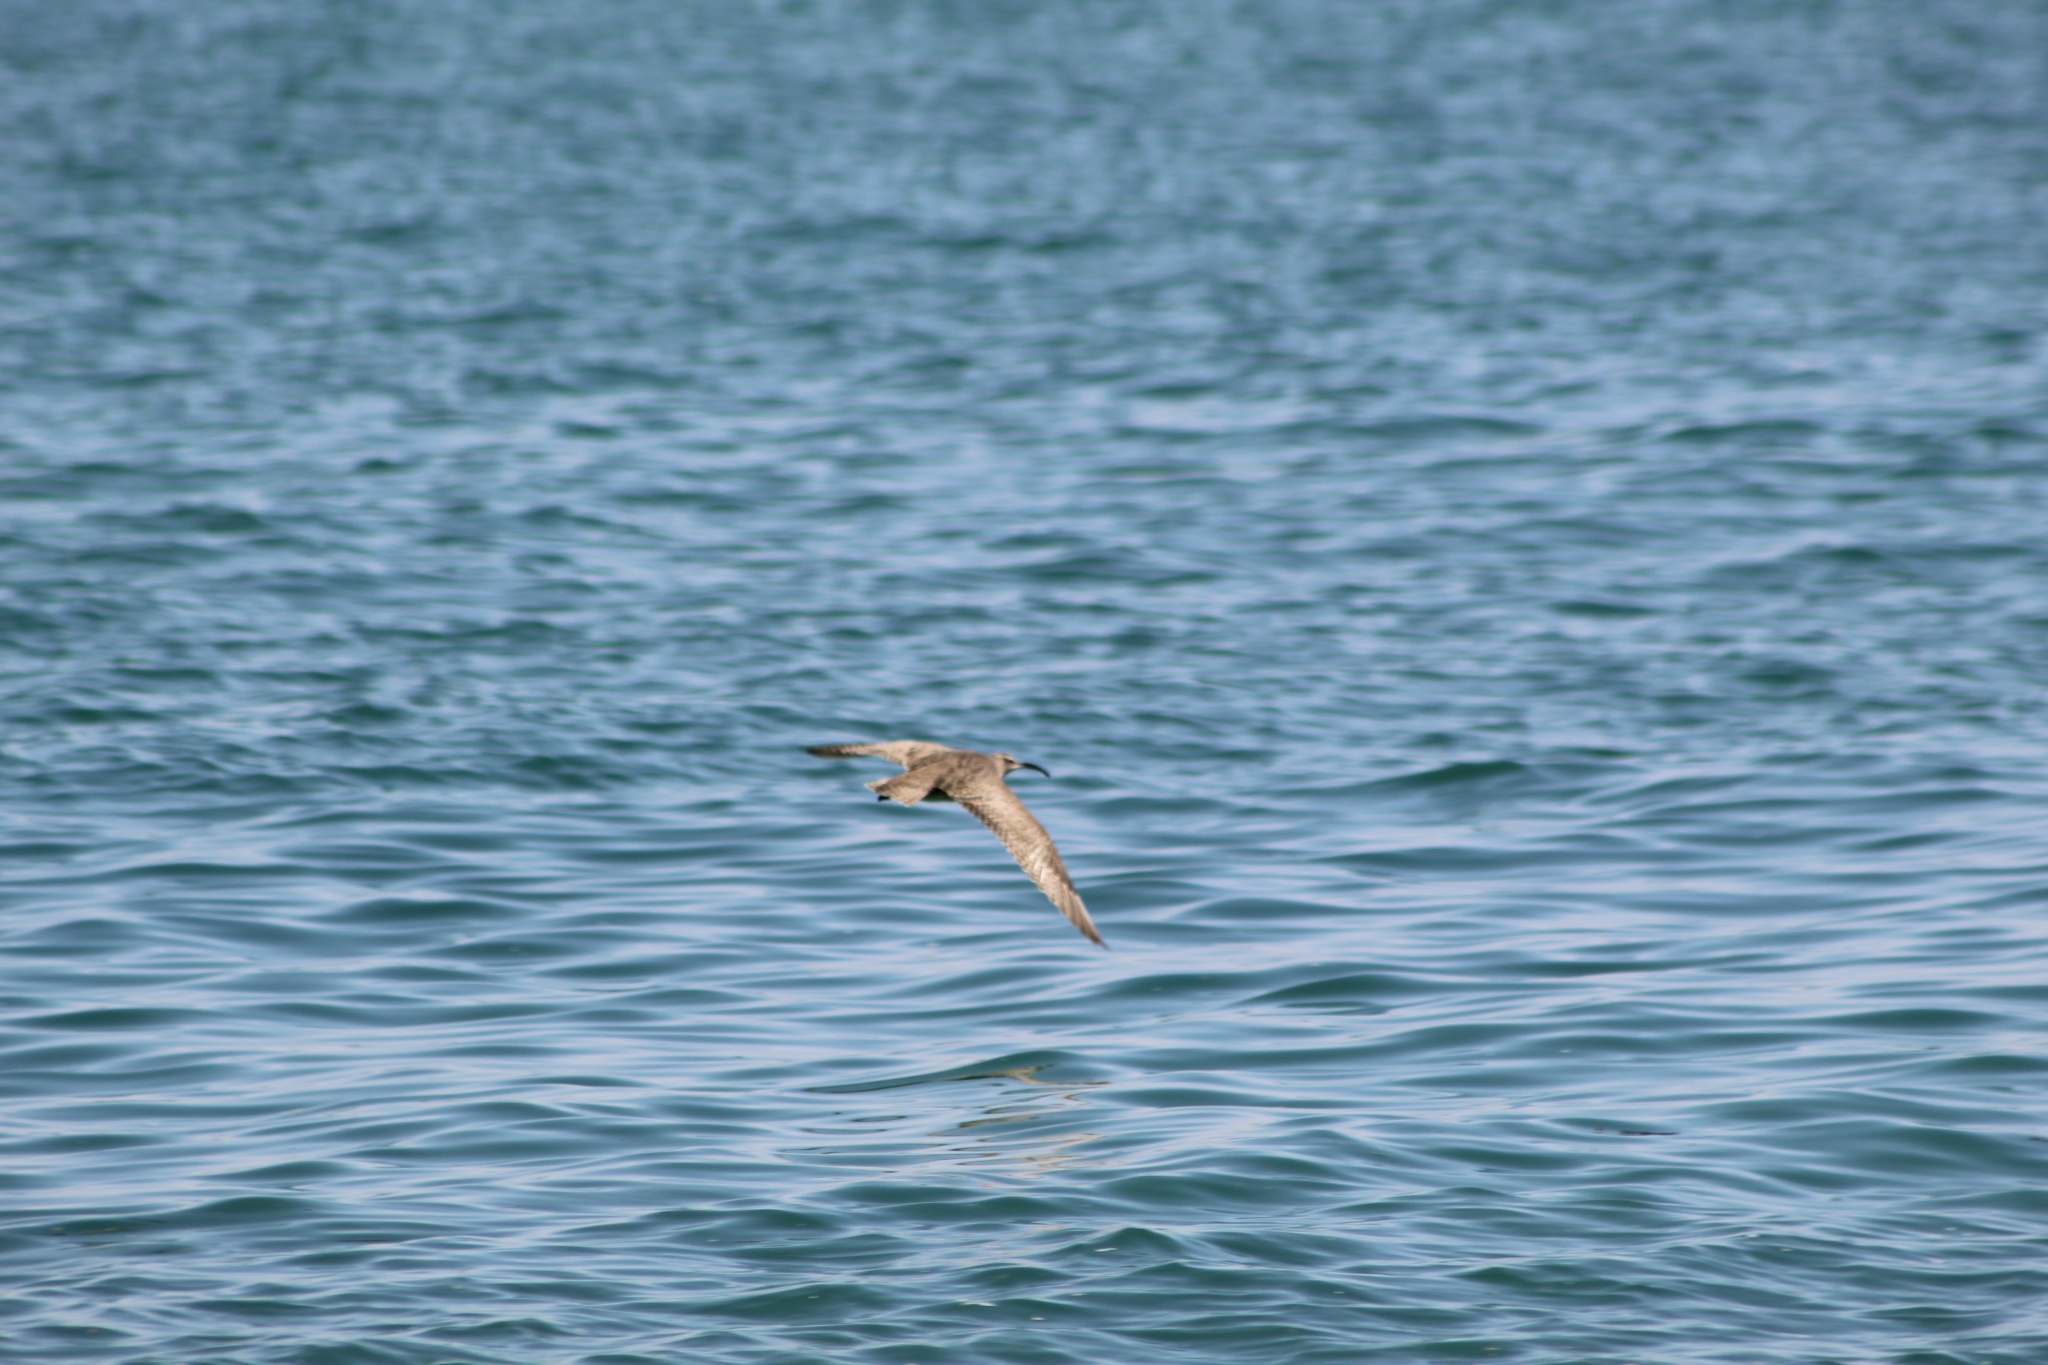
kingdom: Animalia
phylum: Chordata
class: Aves
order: Charadriiformes
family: Scolopacidae
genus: Numenius
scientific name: Numenius hudsonicus
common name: Hudsonian whimbrel
